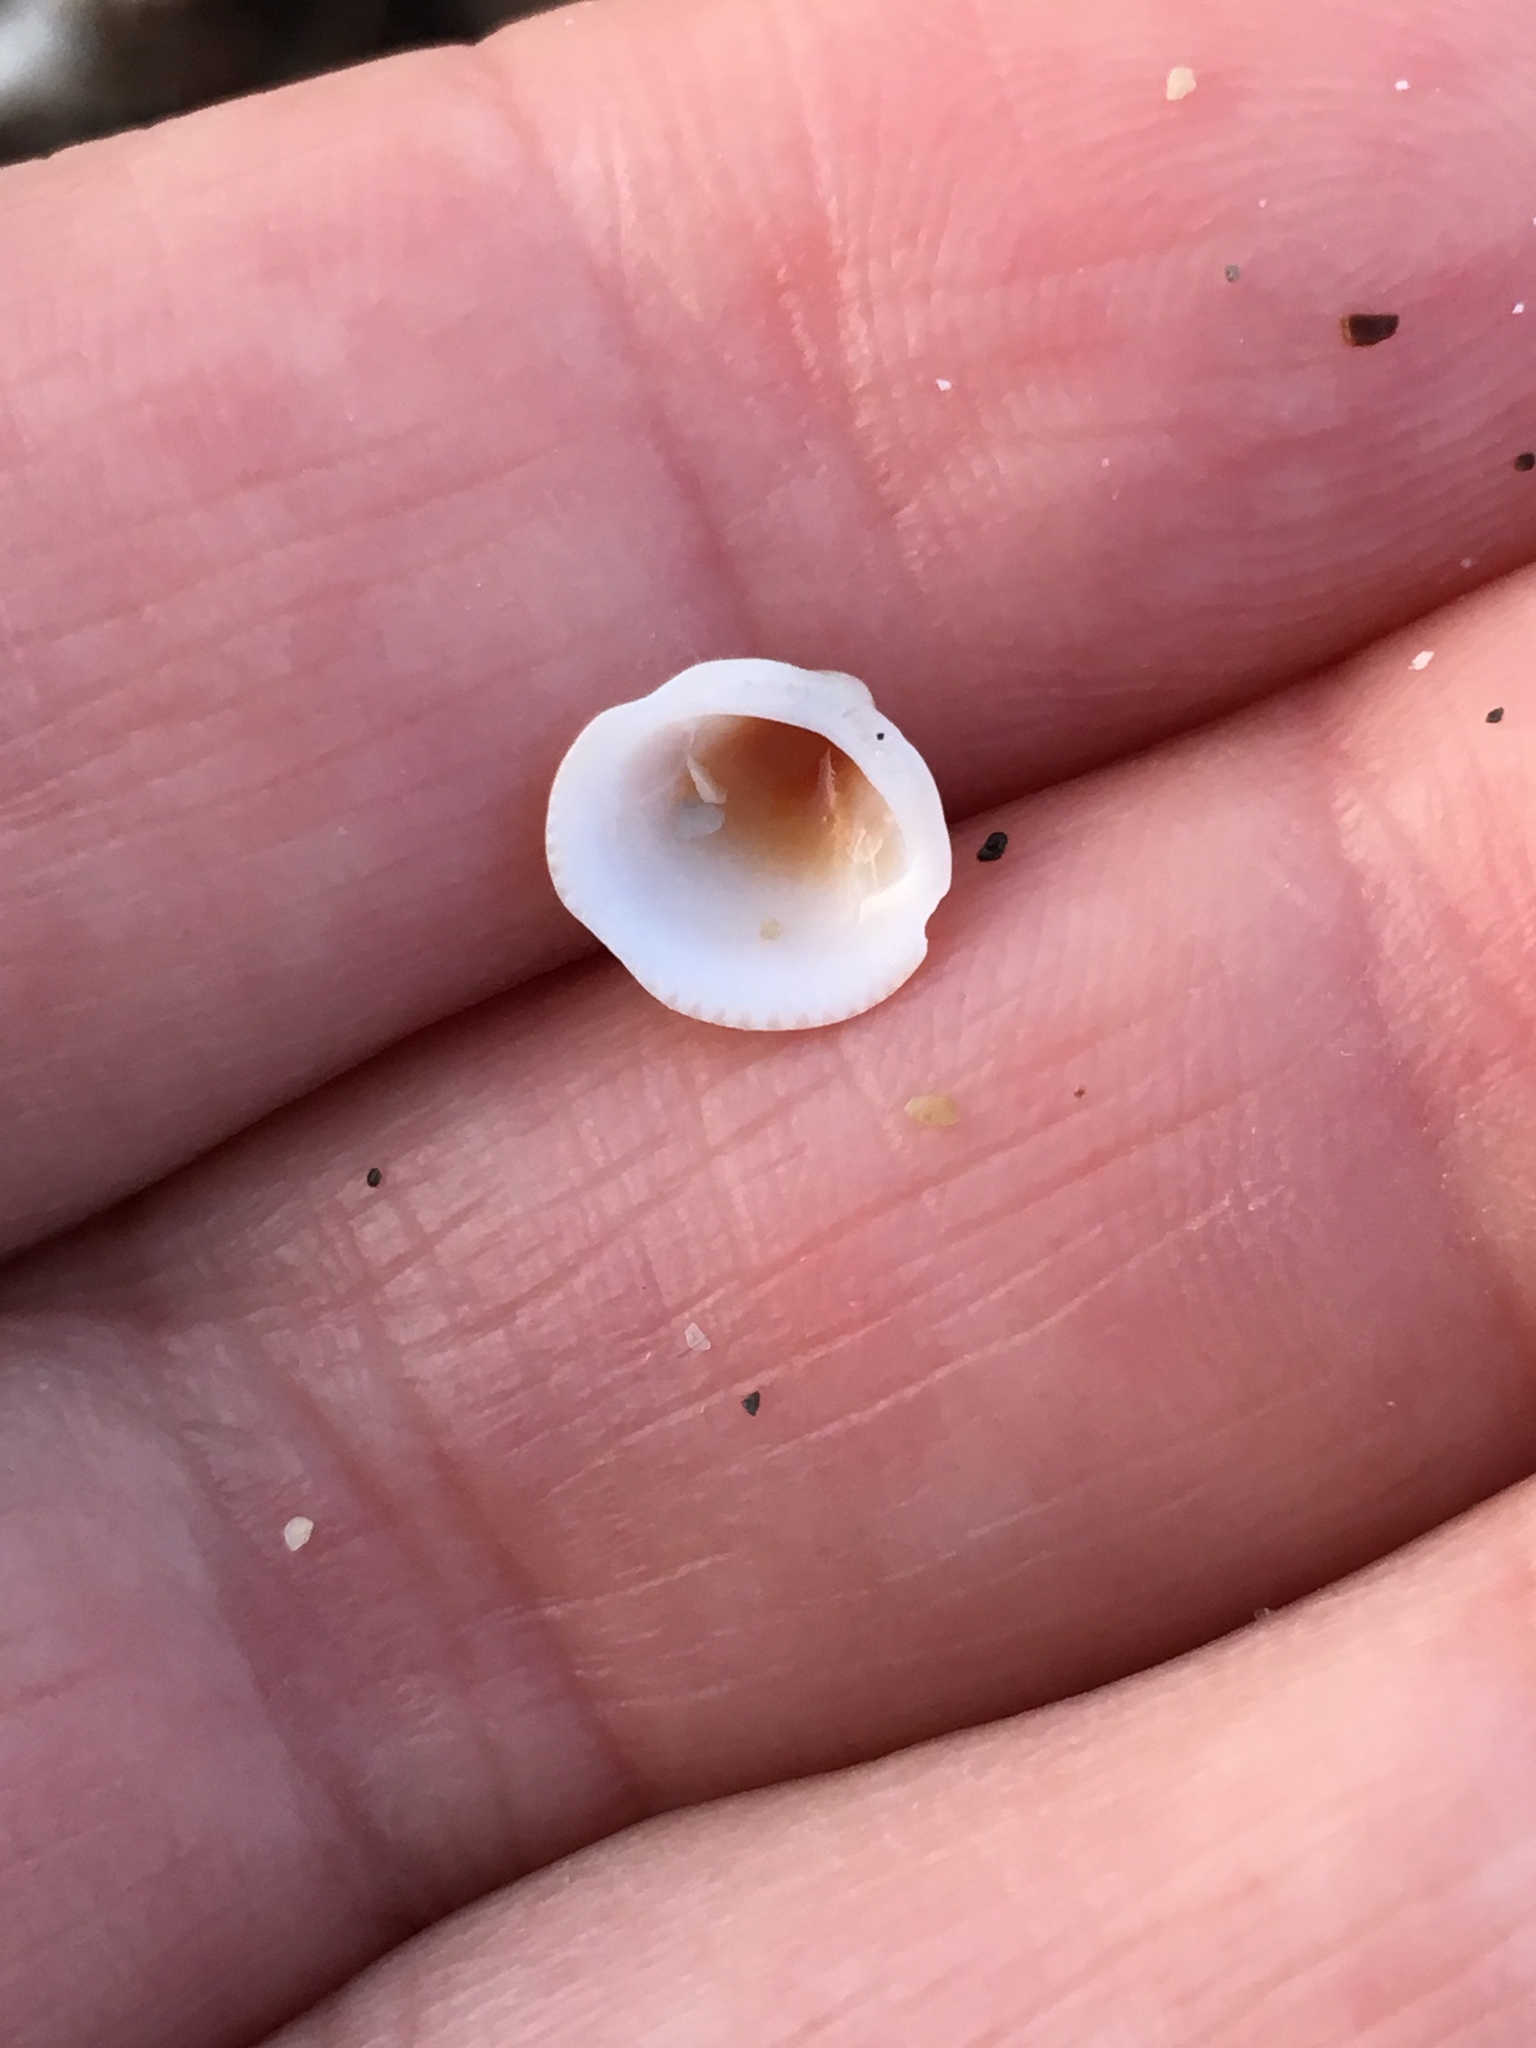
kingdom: Animalia
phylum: Mollusca
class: Bivalvia
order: Arcida
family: Glycymerididae
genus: Glycymeris
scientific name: Glycymeris spectralis
